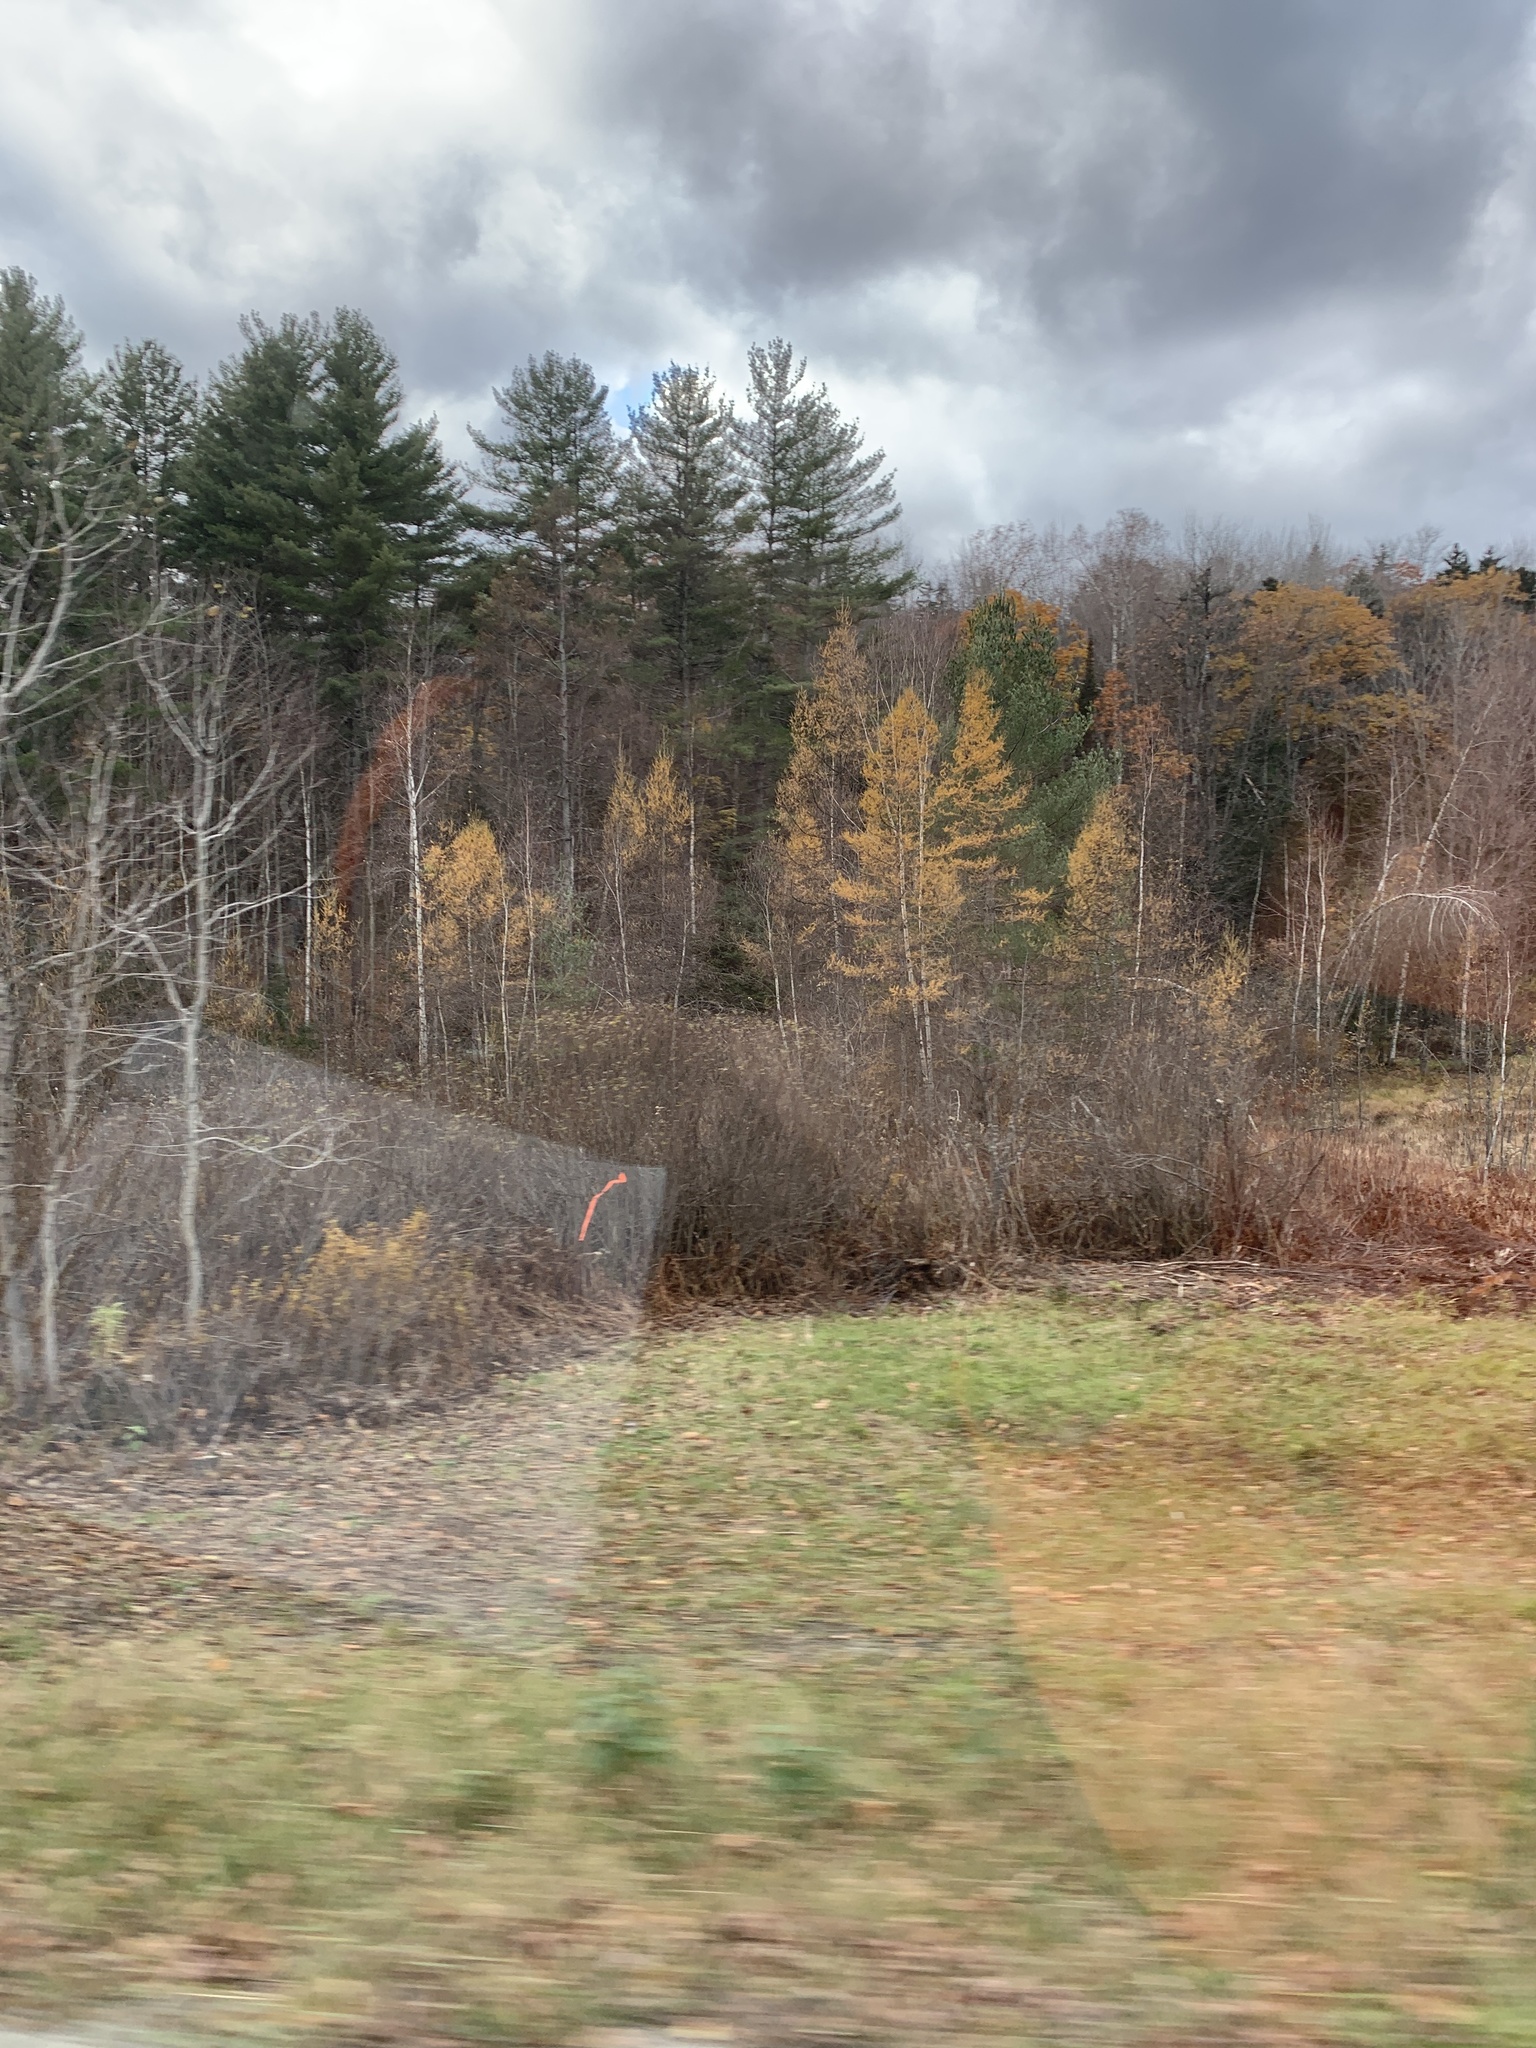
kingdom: Plantae
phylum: Tracheophyta
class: Pinopsida
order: Pinales
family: Pinaceae
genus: Larix
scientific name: Larix laricina
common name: American larch
